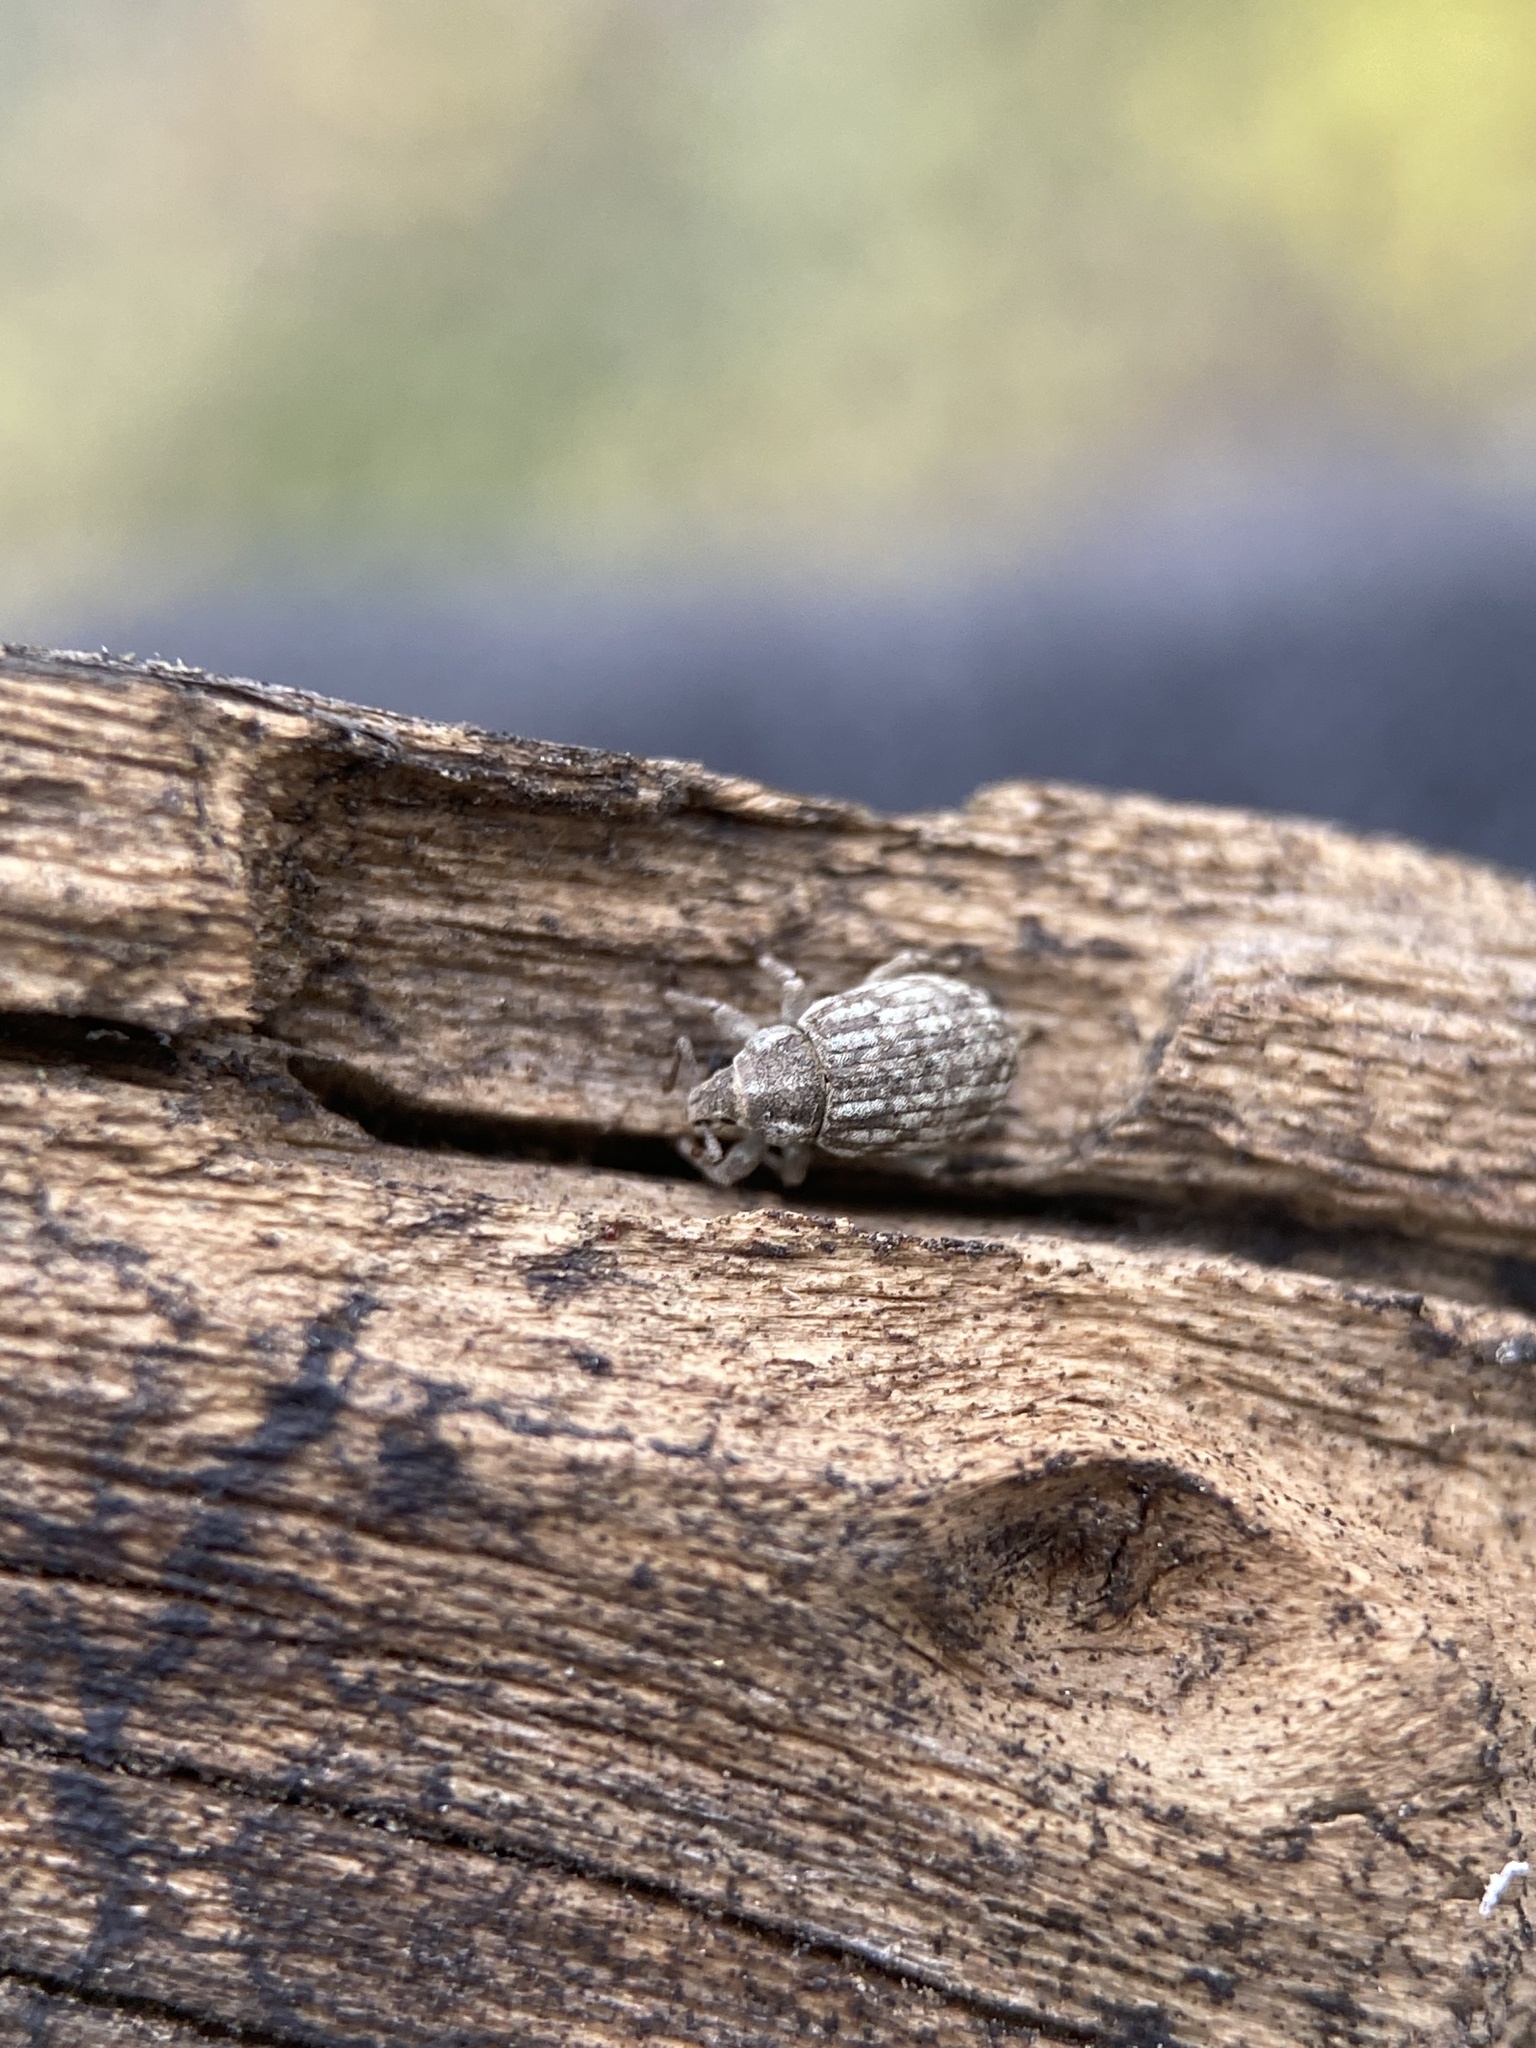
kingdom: Animalia
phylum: Arthropoda
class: Insecta
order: Coleoptera
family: Curculionidae
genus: Romualdius
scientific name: Romualdius scaber
